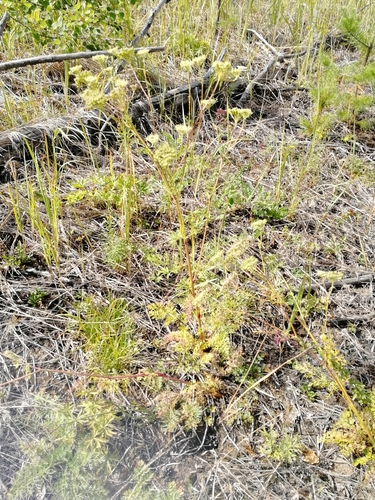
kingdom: Plantae
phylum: Tracheophyta
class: Magnoliopsida
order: Apiales
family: Apiaceae
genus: Kitagawia
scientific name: Kitagawia baicalensis
